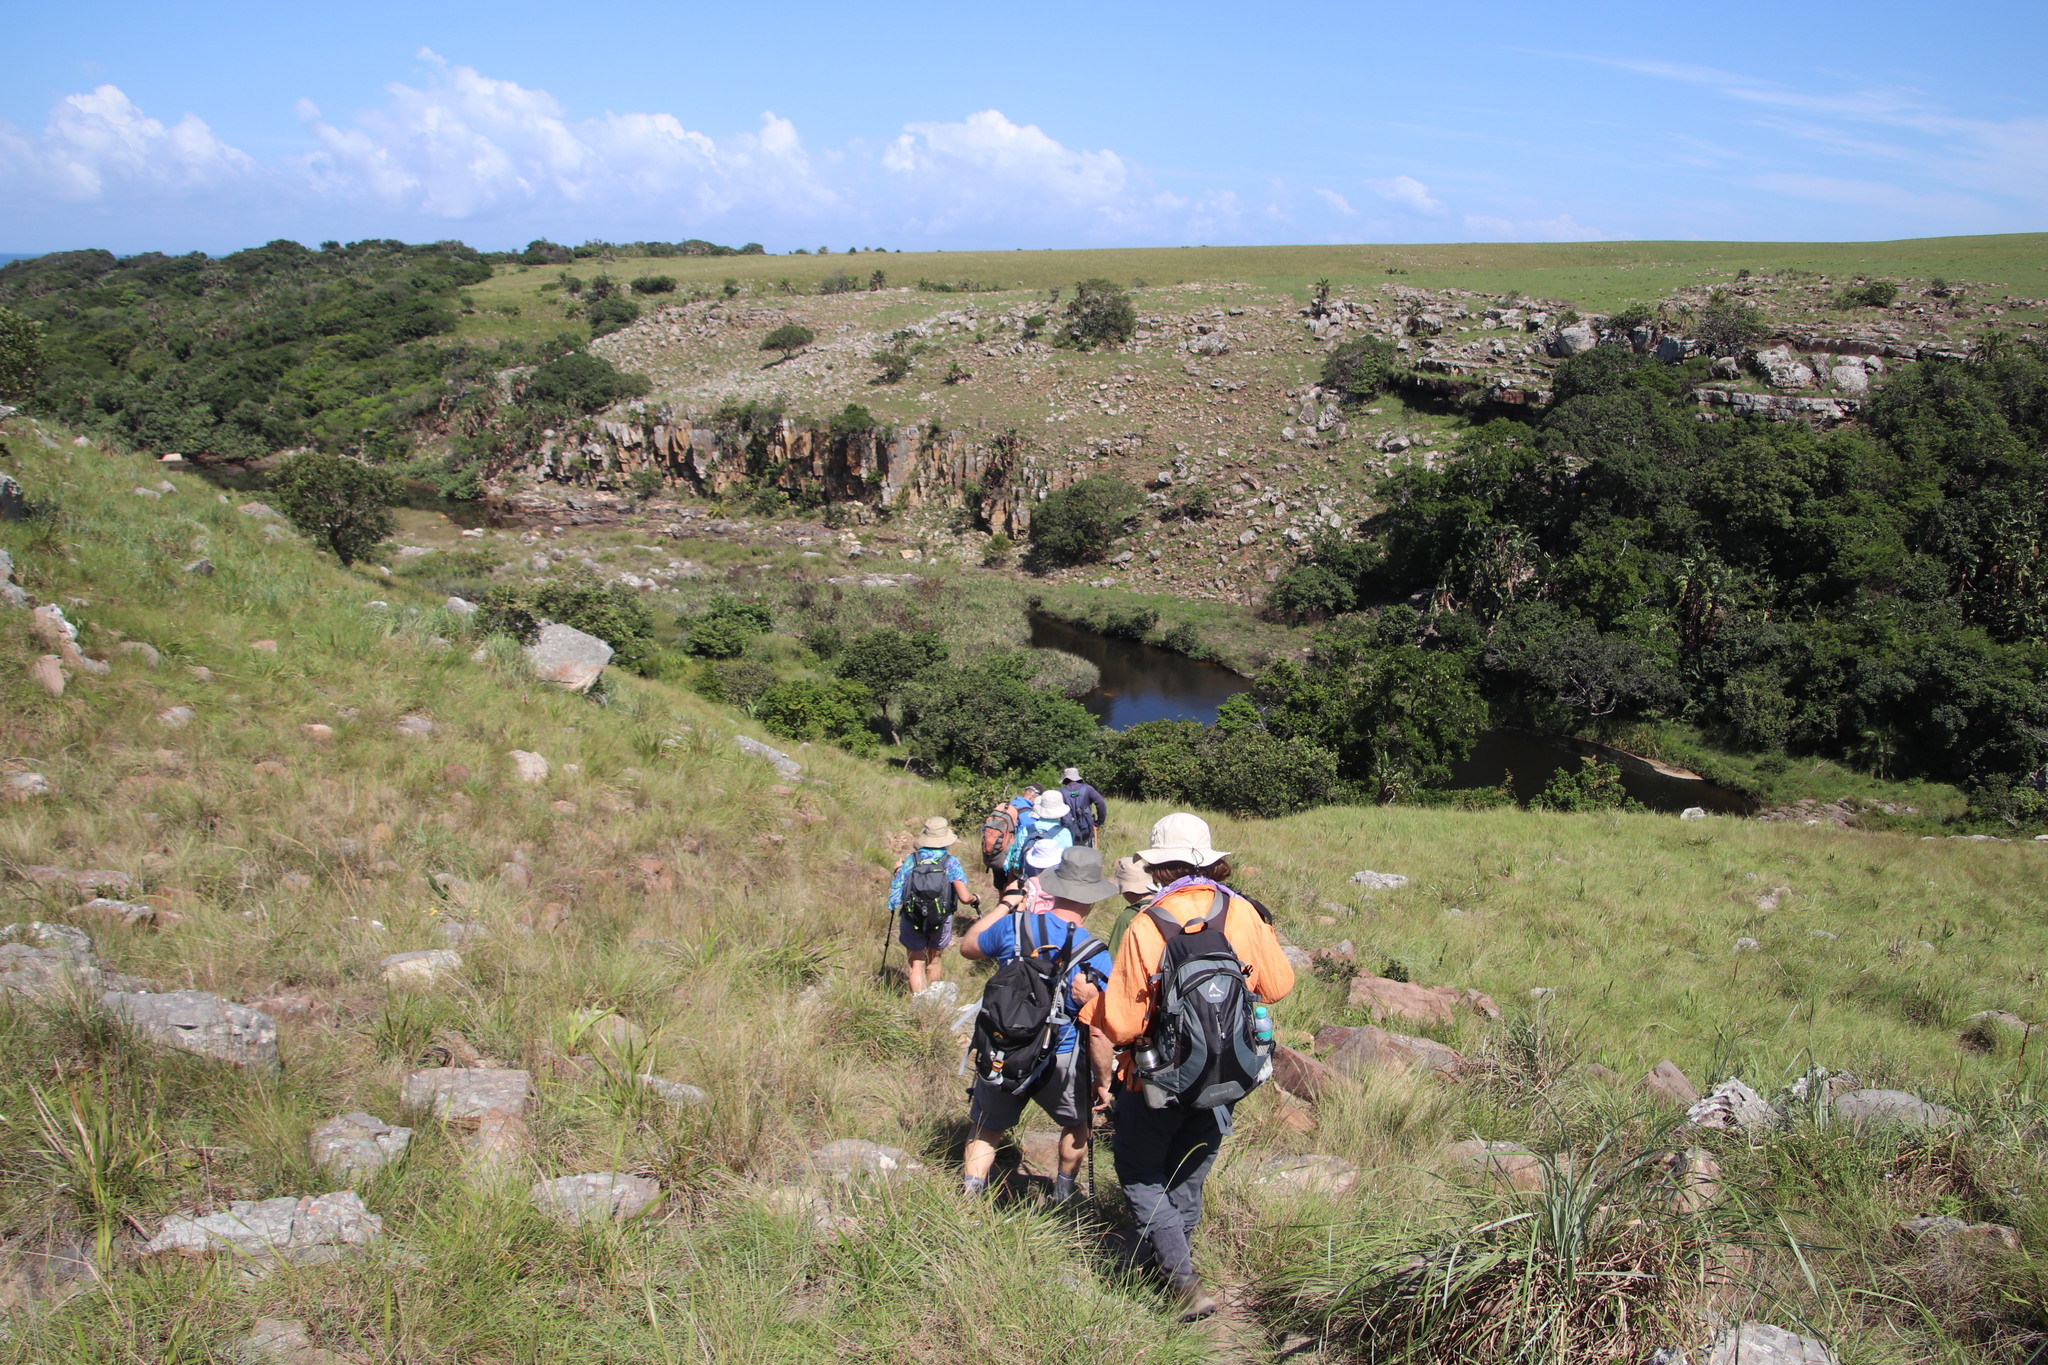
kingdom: Plantae
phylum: Tracheophyta
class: Liliopsida
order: Poales
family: Thurniaceae
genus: Prionium
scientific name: Prionium serratum
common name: Palmiet
